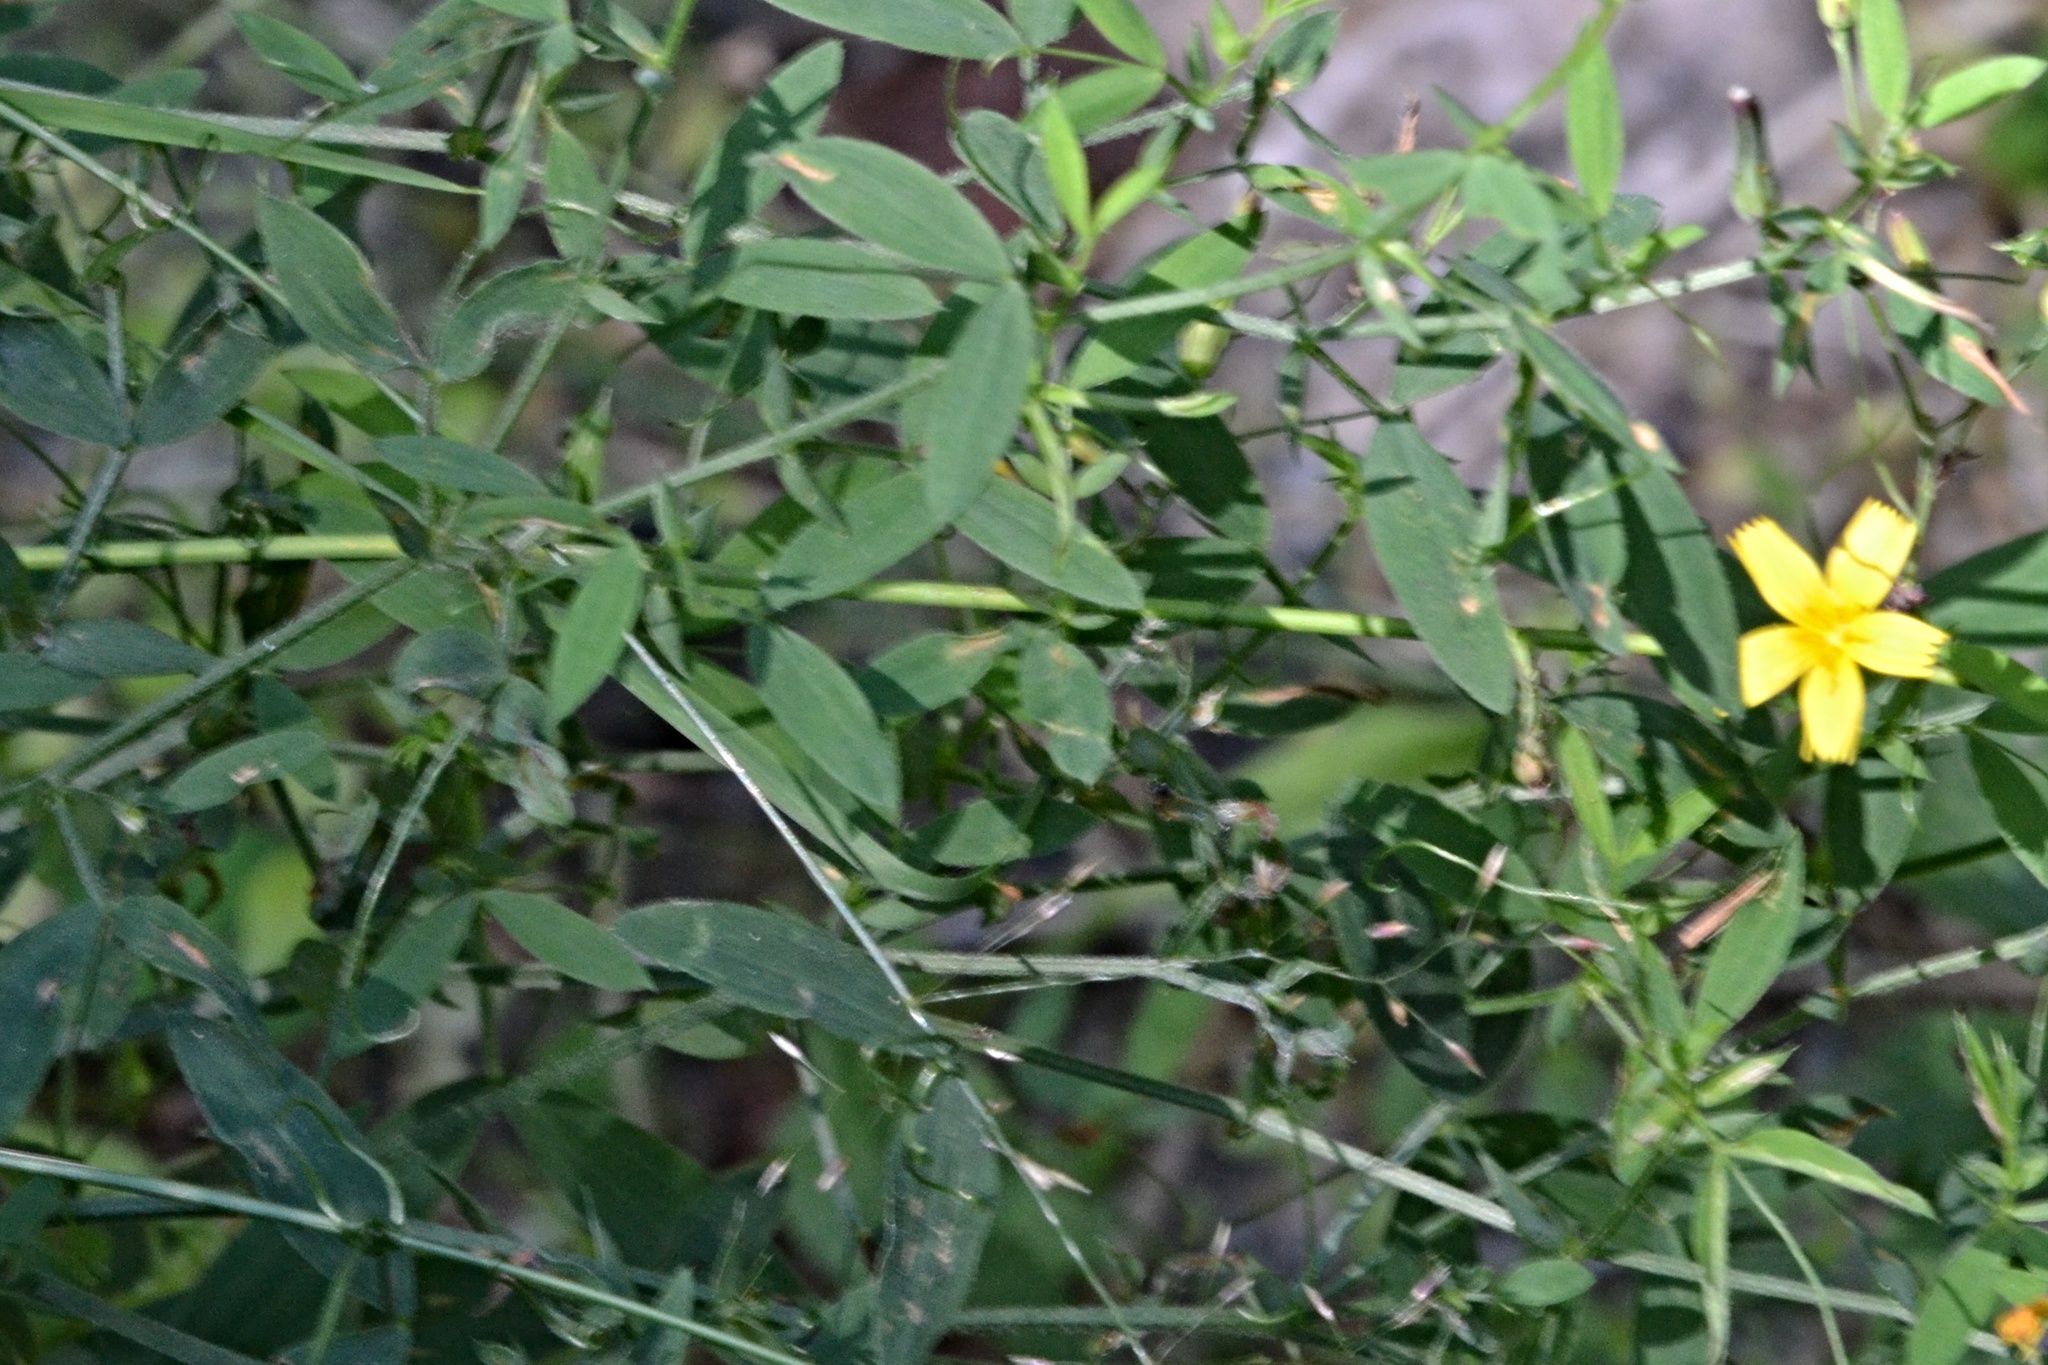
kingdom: Plantae
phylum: Tracheophyta
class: Magnoliopsida
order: Asterales
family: Asteraceae
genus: Mycelis
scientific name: Mycelis muralis
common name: Wall lettuce
